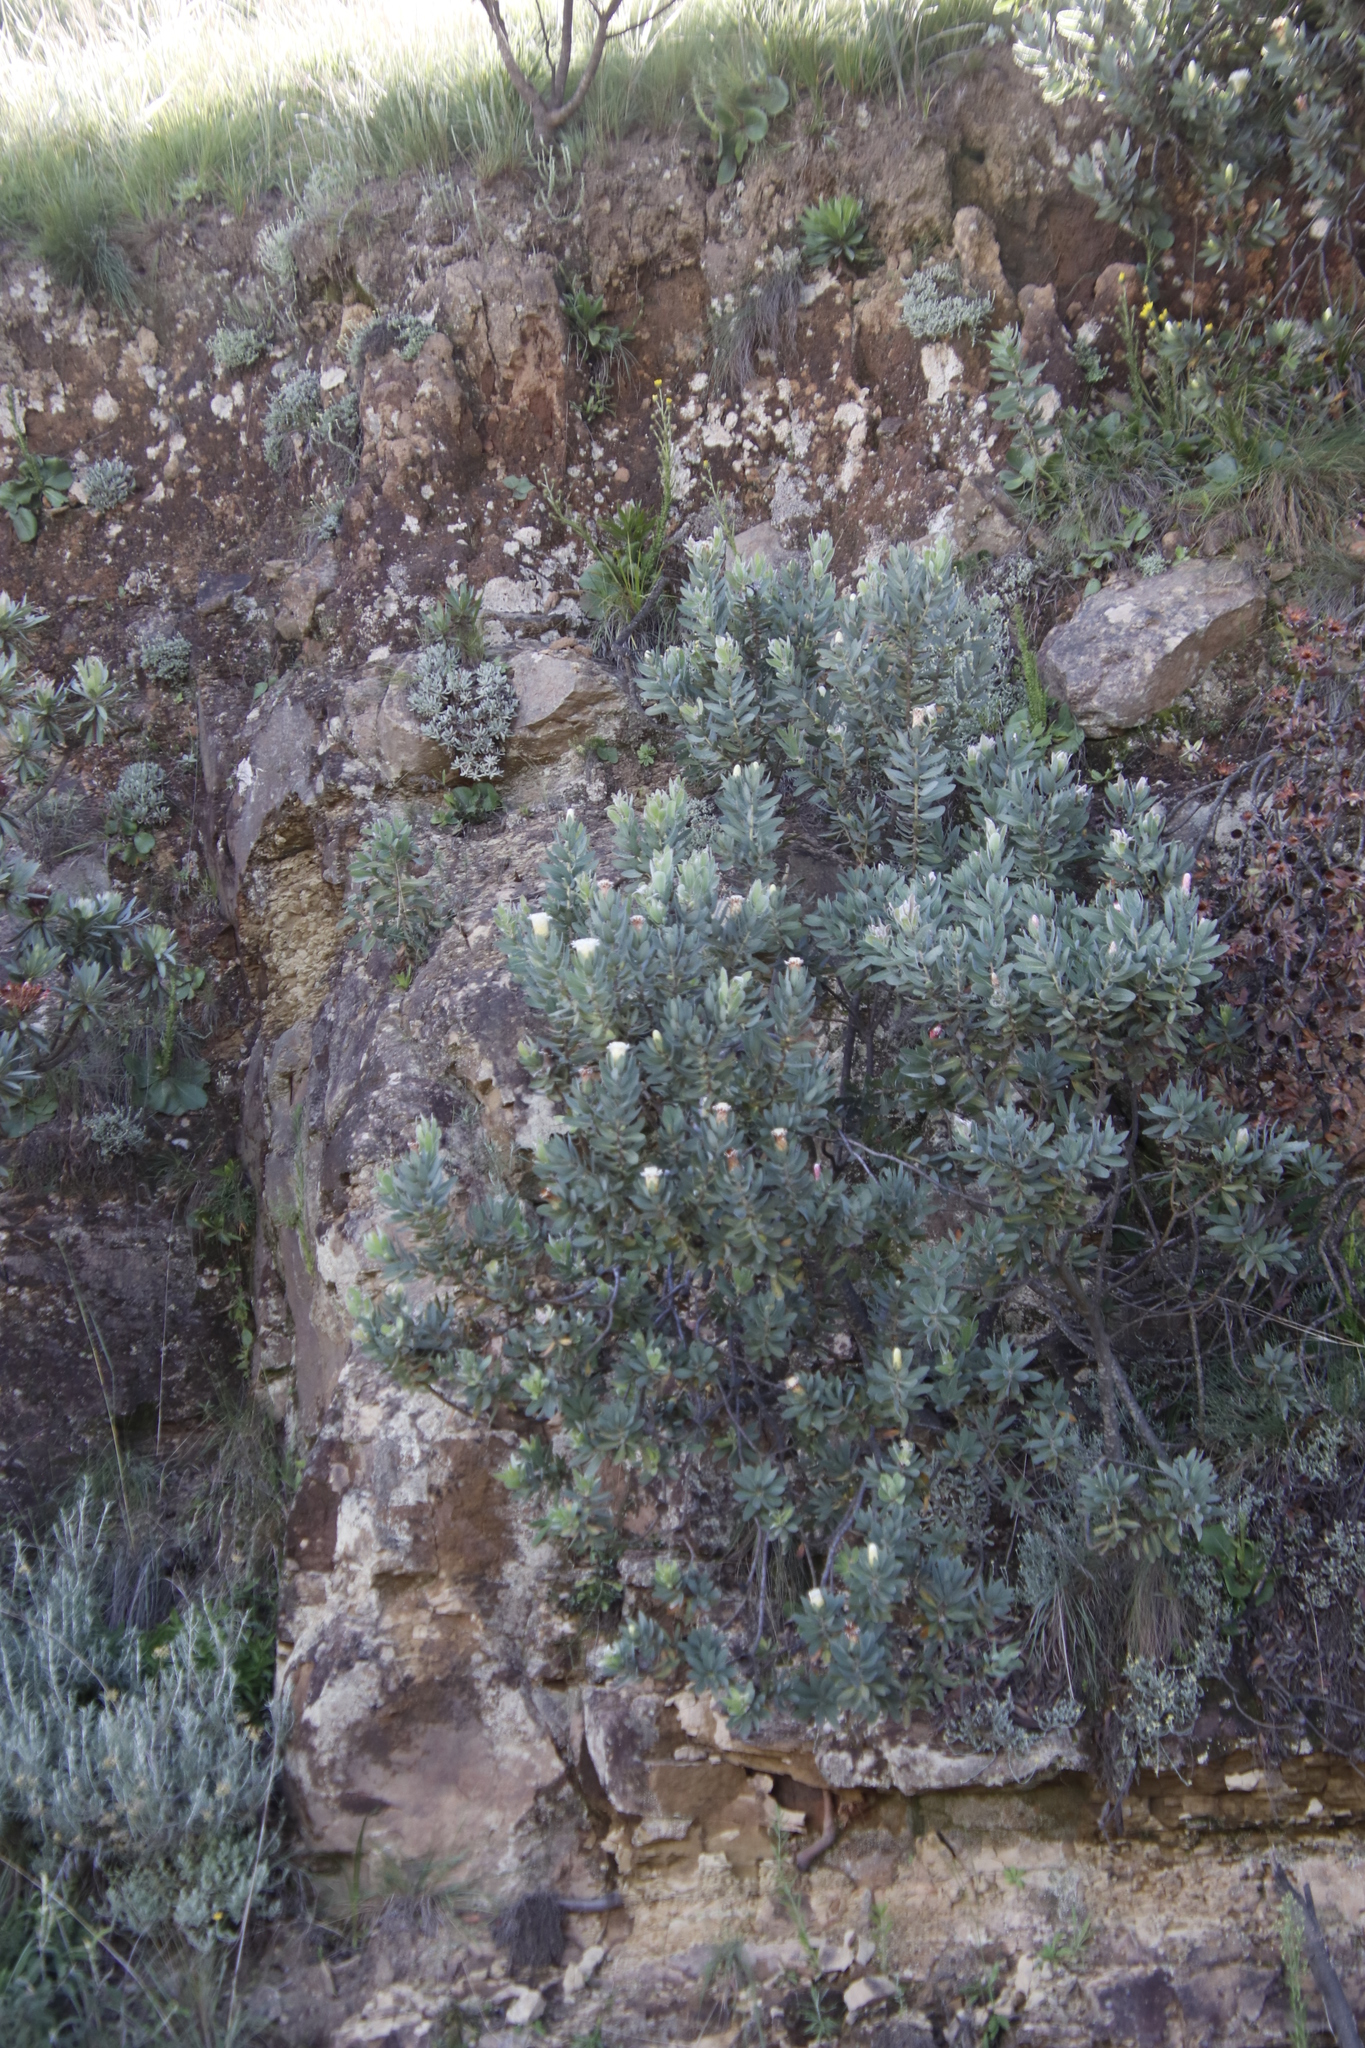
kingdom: Plantae
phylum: Tracheophyta
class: Magnoliopsida
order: Proteales
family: Proteaceae
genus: Protea
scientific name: Protea subvestita
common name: Lip-flower sugarbush
